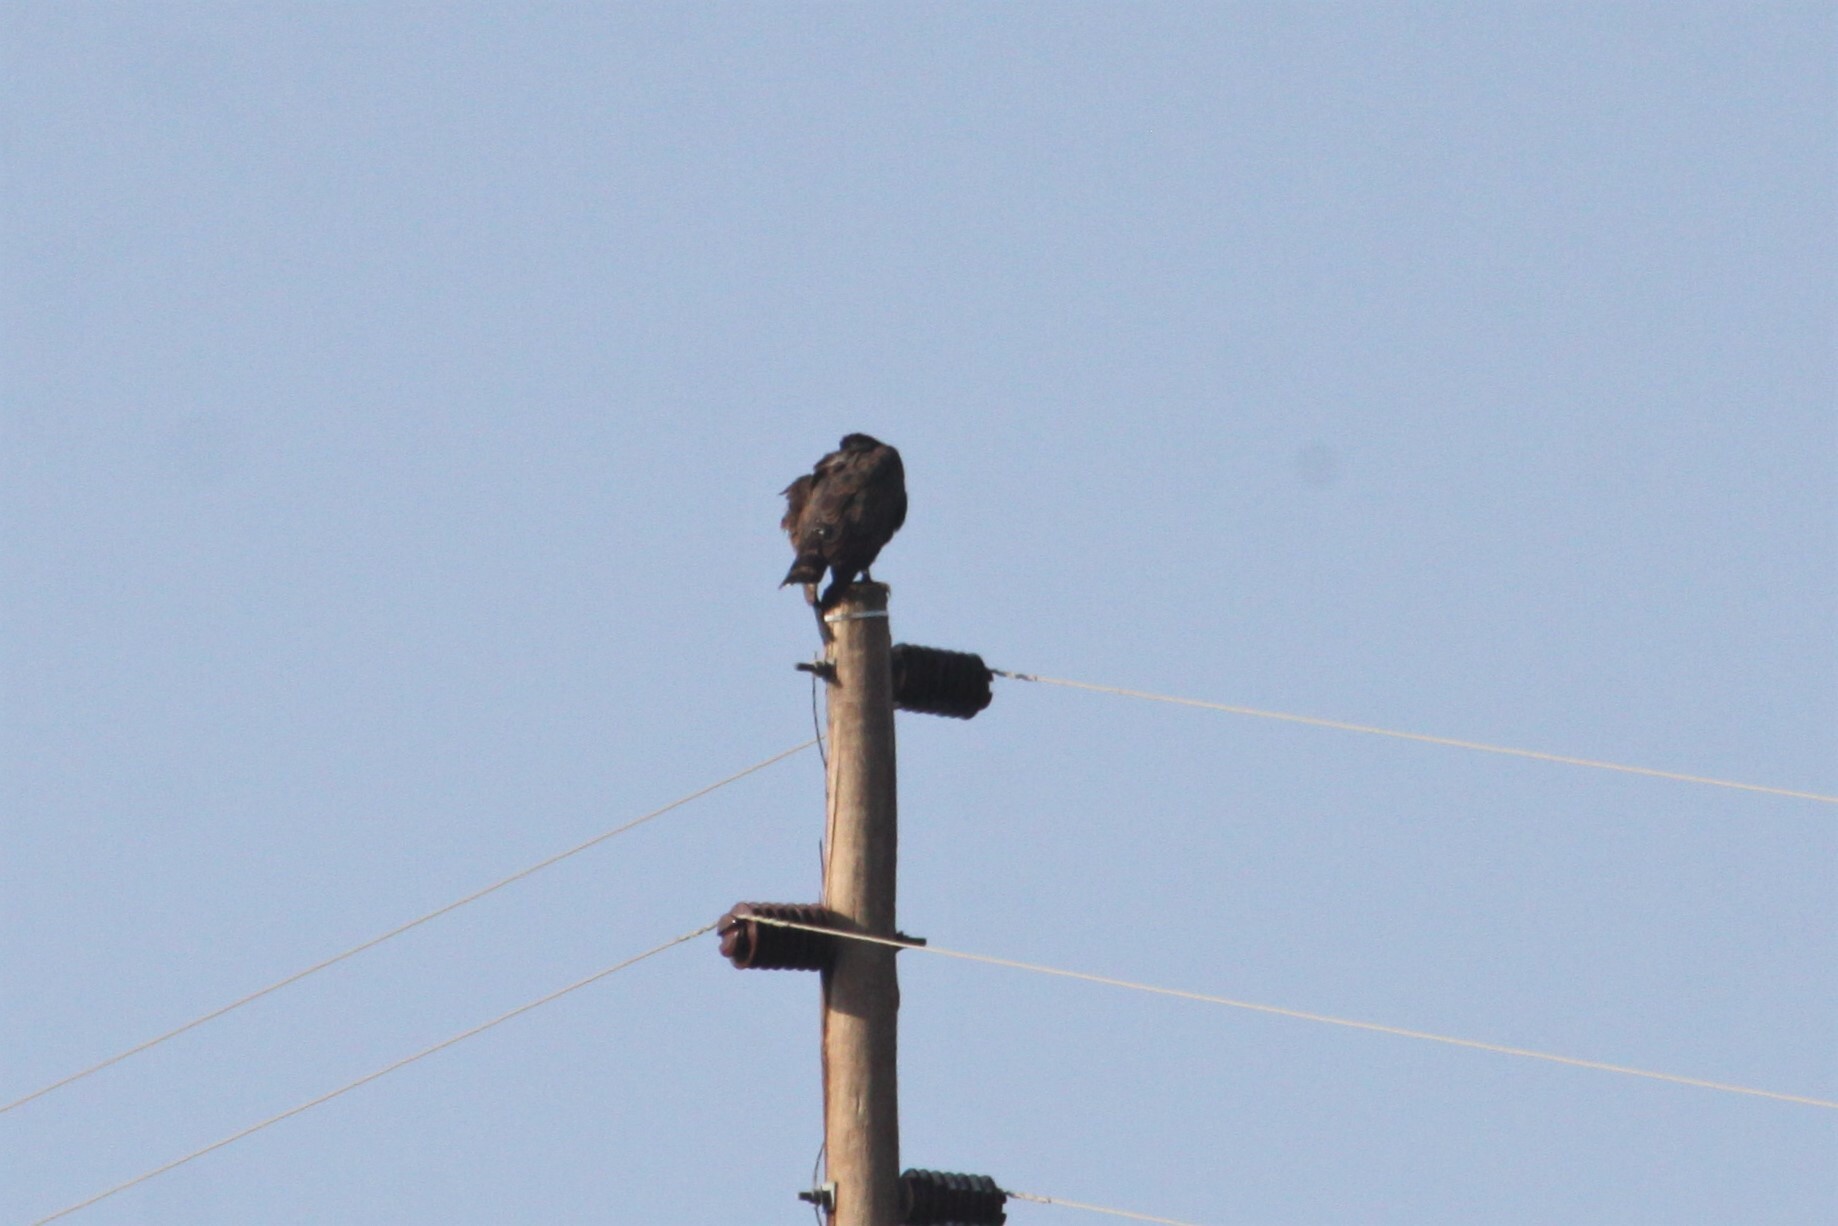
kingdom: Animalia
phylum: Chordata
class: Aves
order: Accipitriformes
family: Accipitridae
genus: Circaetus
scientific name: Circaetus cinereus
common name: Brown snake eagle
